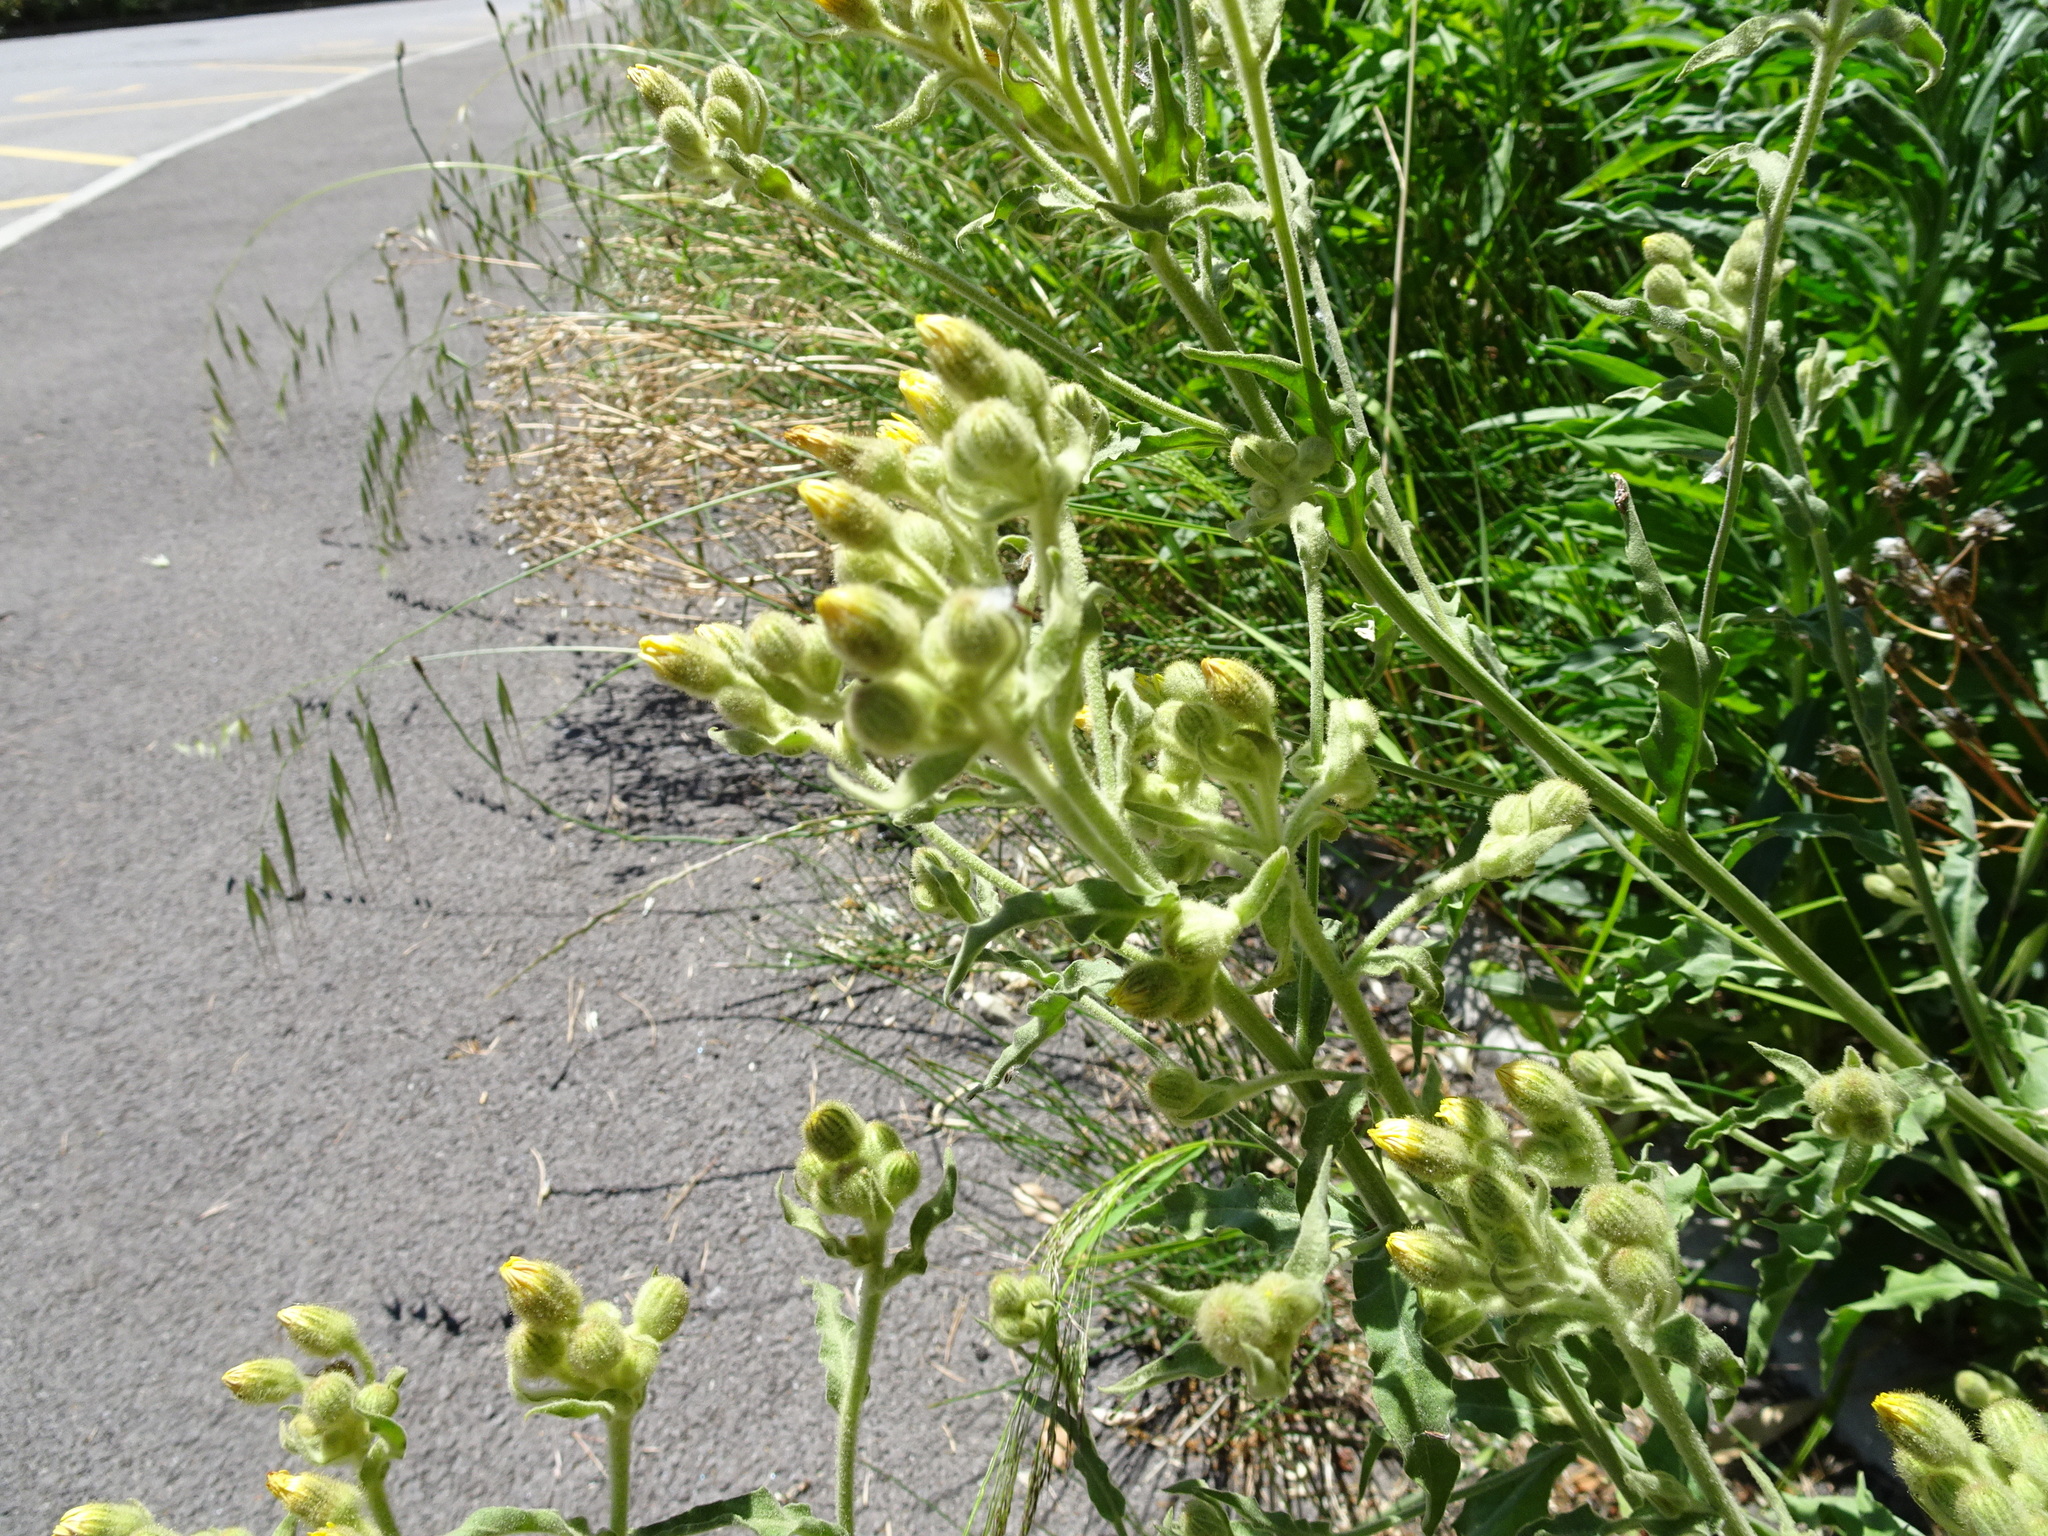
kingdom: Plantae
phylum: Tracheophyta
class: Magnoliopsida
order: Asterales
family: Asteraceae
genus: Andryala
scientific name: Andryala integrifolia
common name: Common andryala
